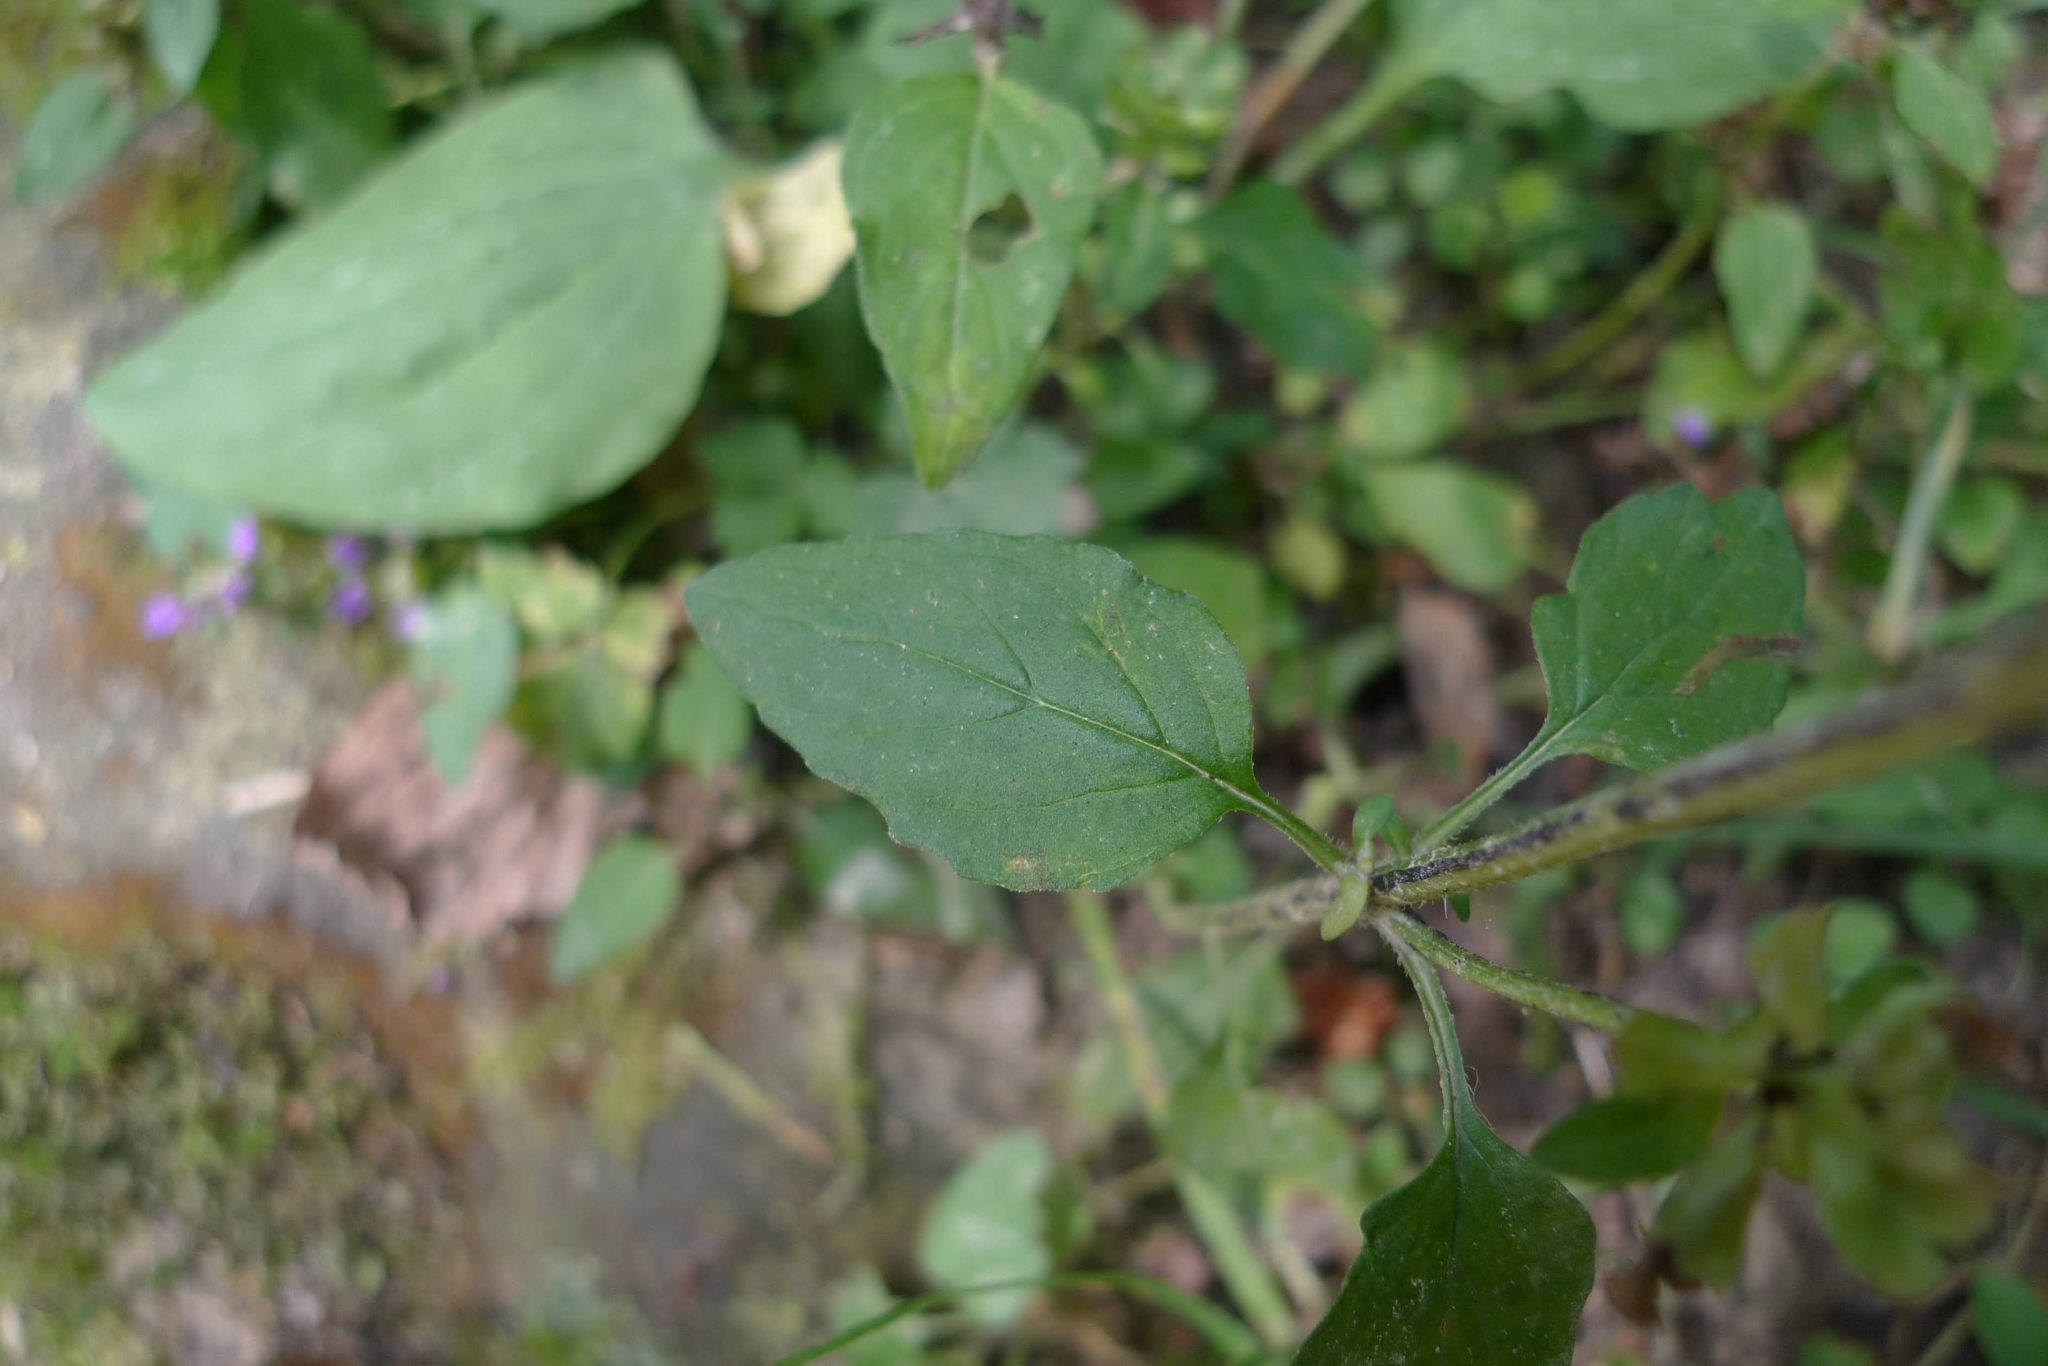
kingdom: Plantae
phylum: Tracheophyta
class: Magnoliopsida
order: Lamiales
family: Lamiaceae
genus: Prunella
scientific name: Prunella vulgaris
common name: Heal-all
